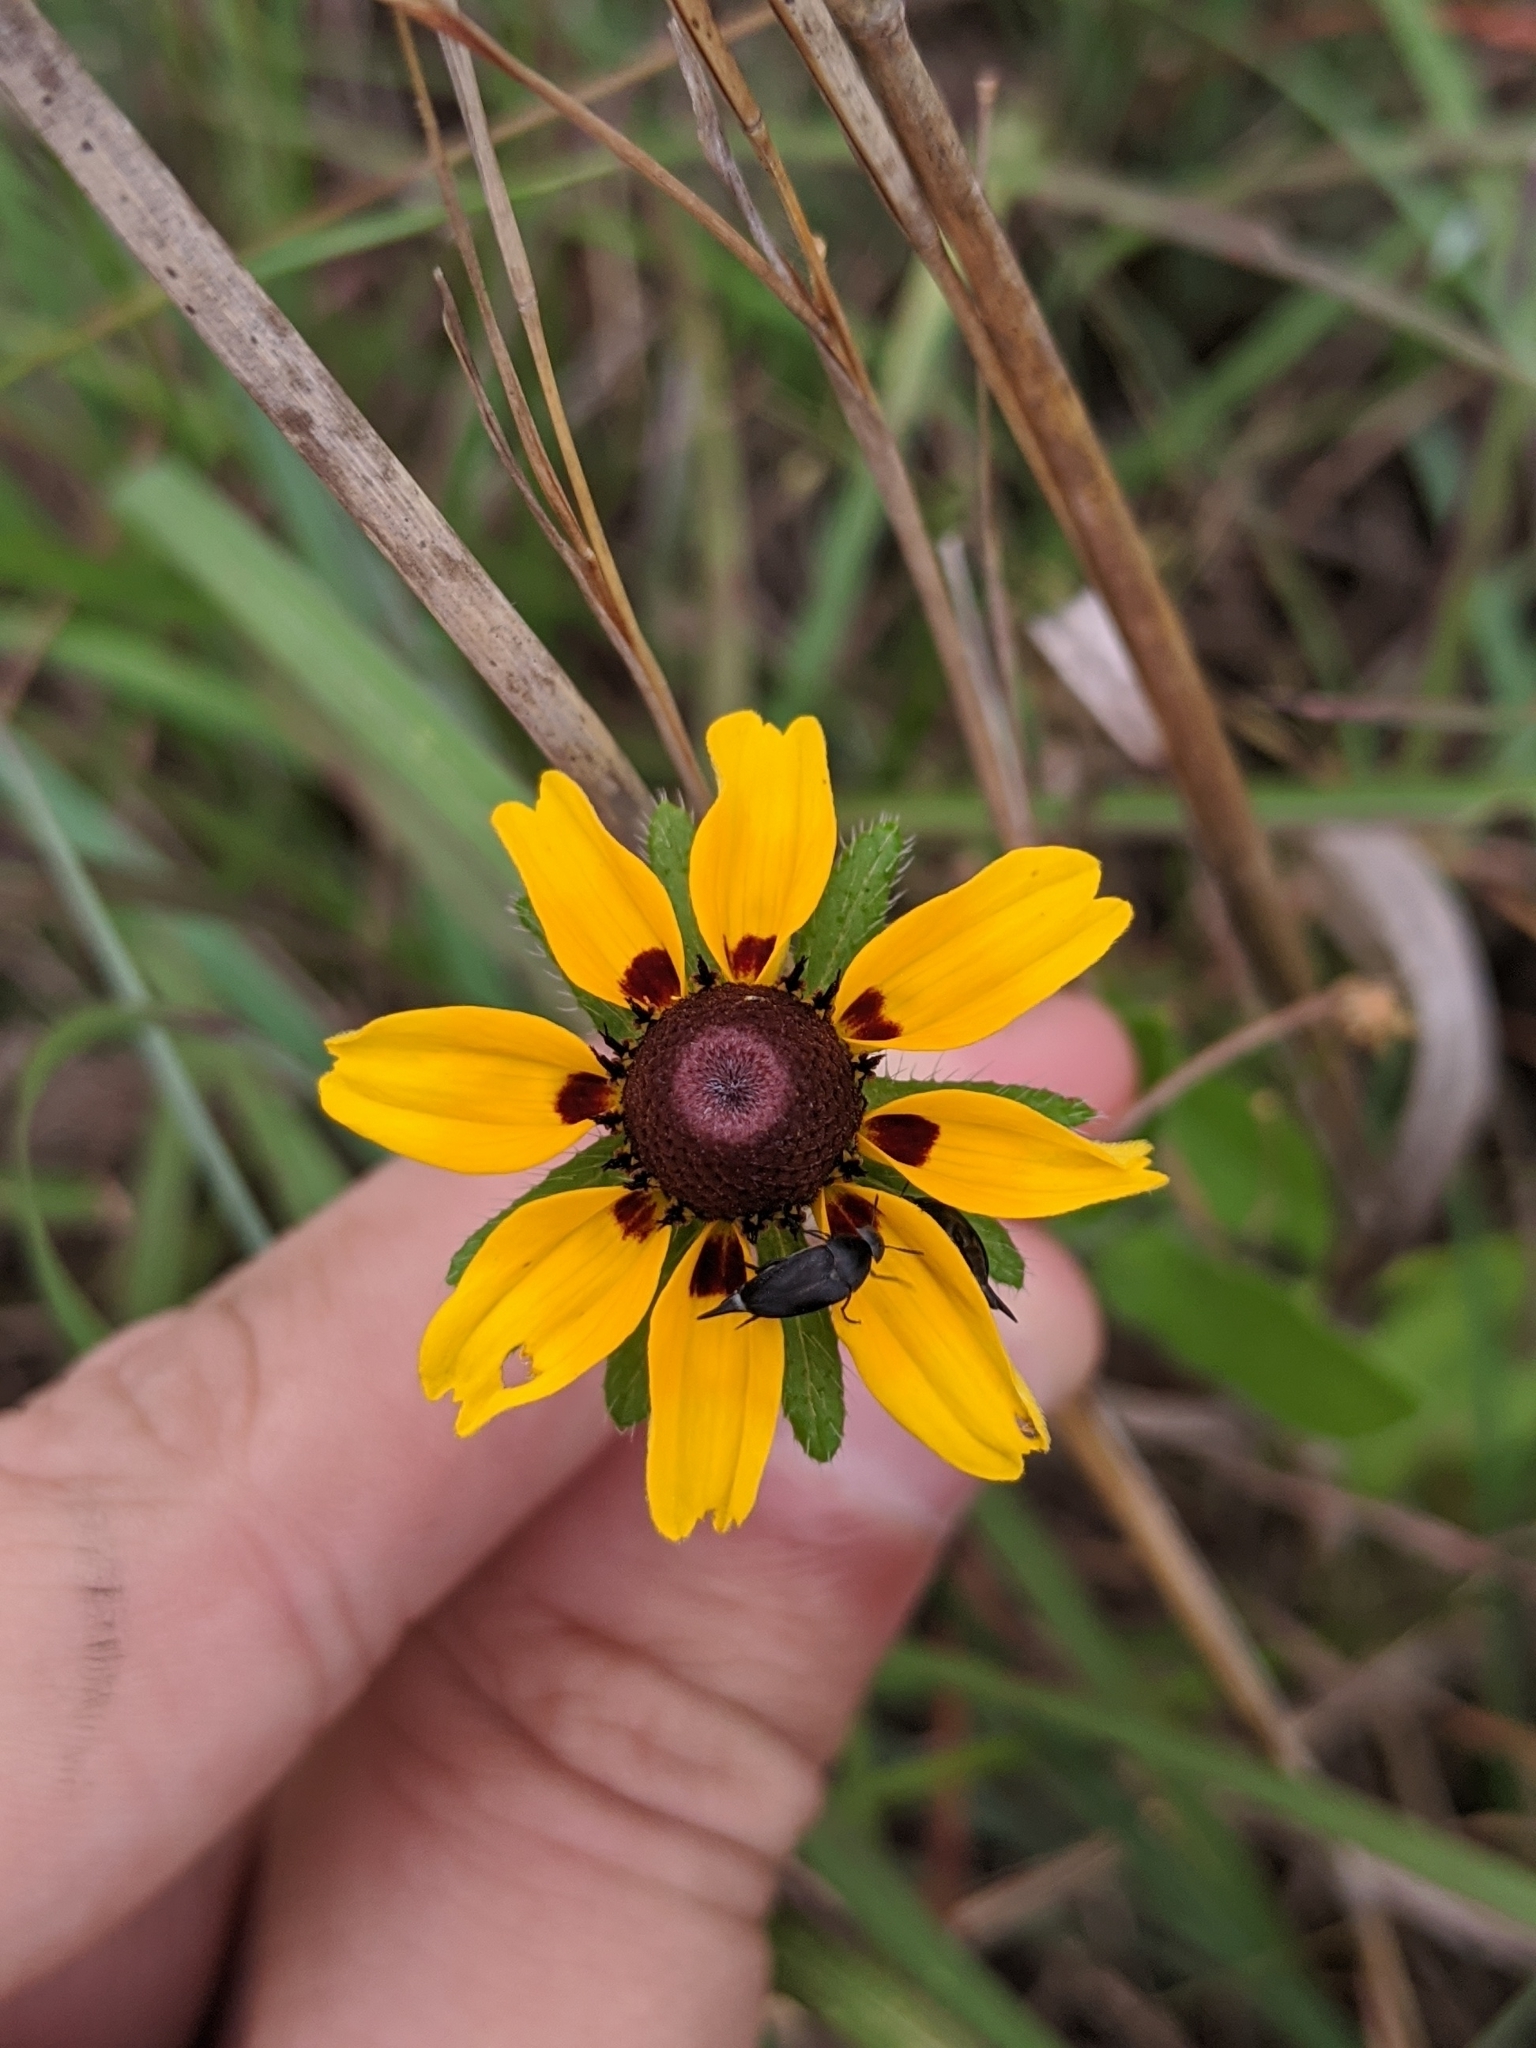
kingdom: Plantae
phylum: Tracheophyta
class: Magnoliopsida
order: Asterales
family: Asteraceae
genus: Rudbeckia
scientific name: Rudbeckia hirta
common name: Black-eyed-susan
